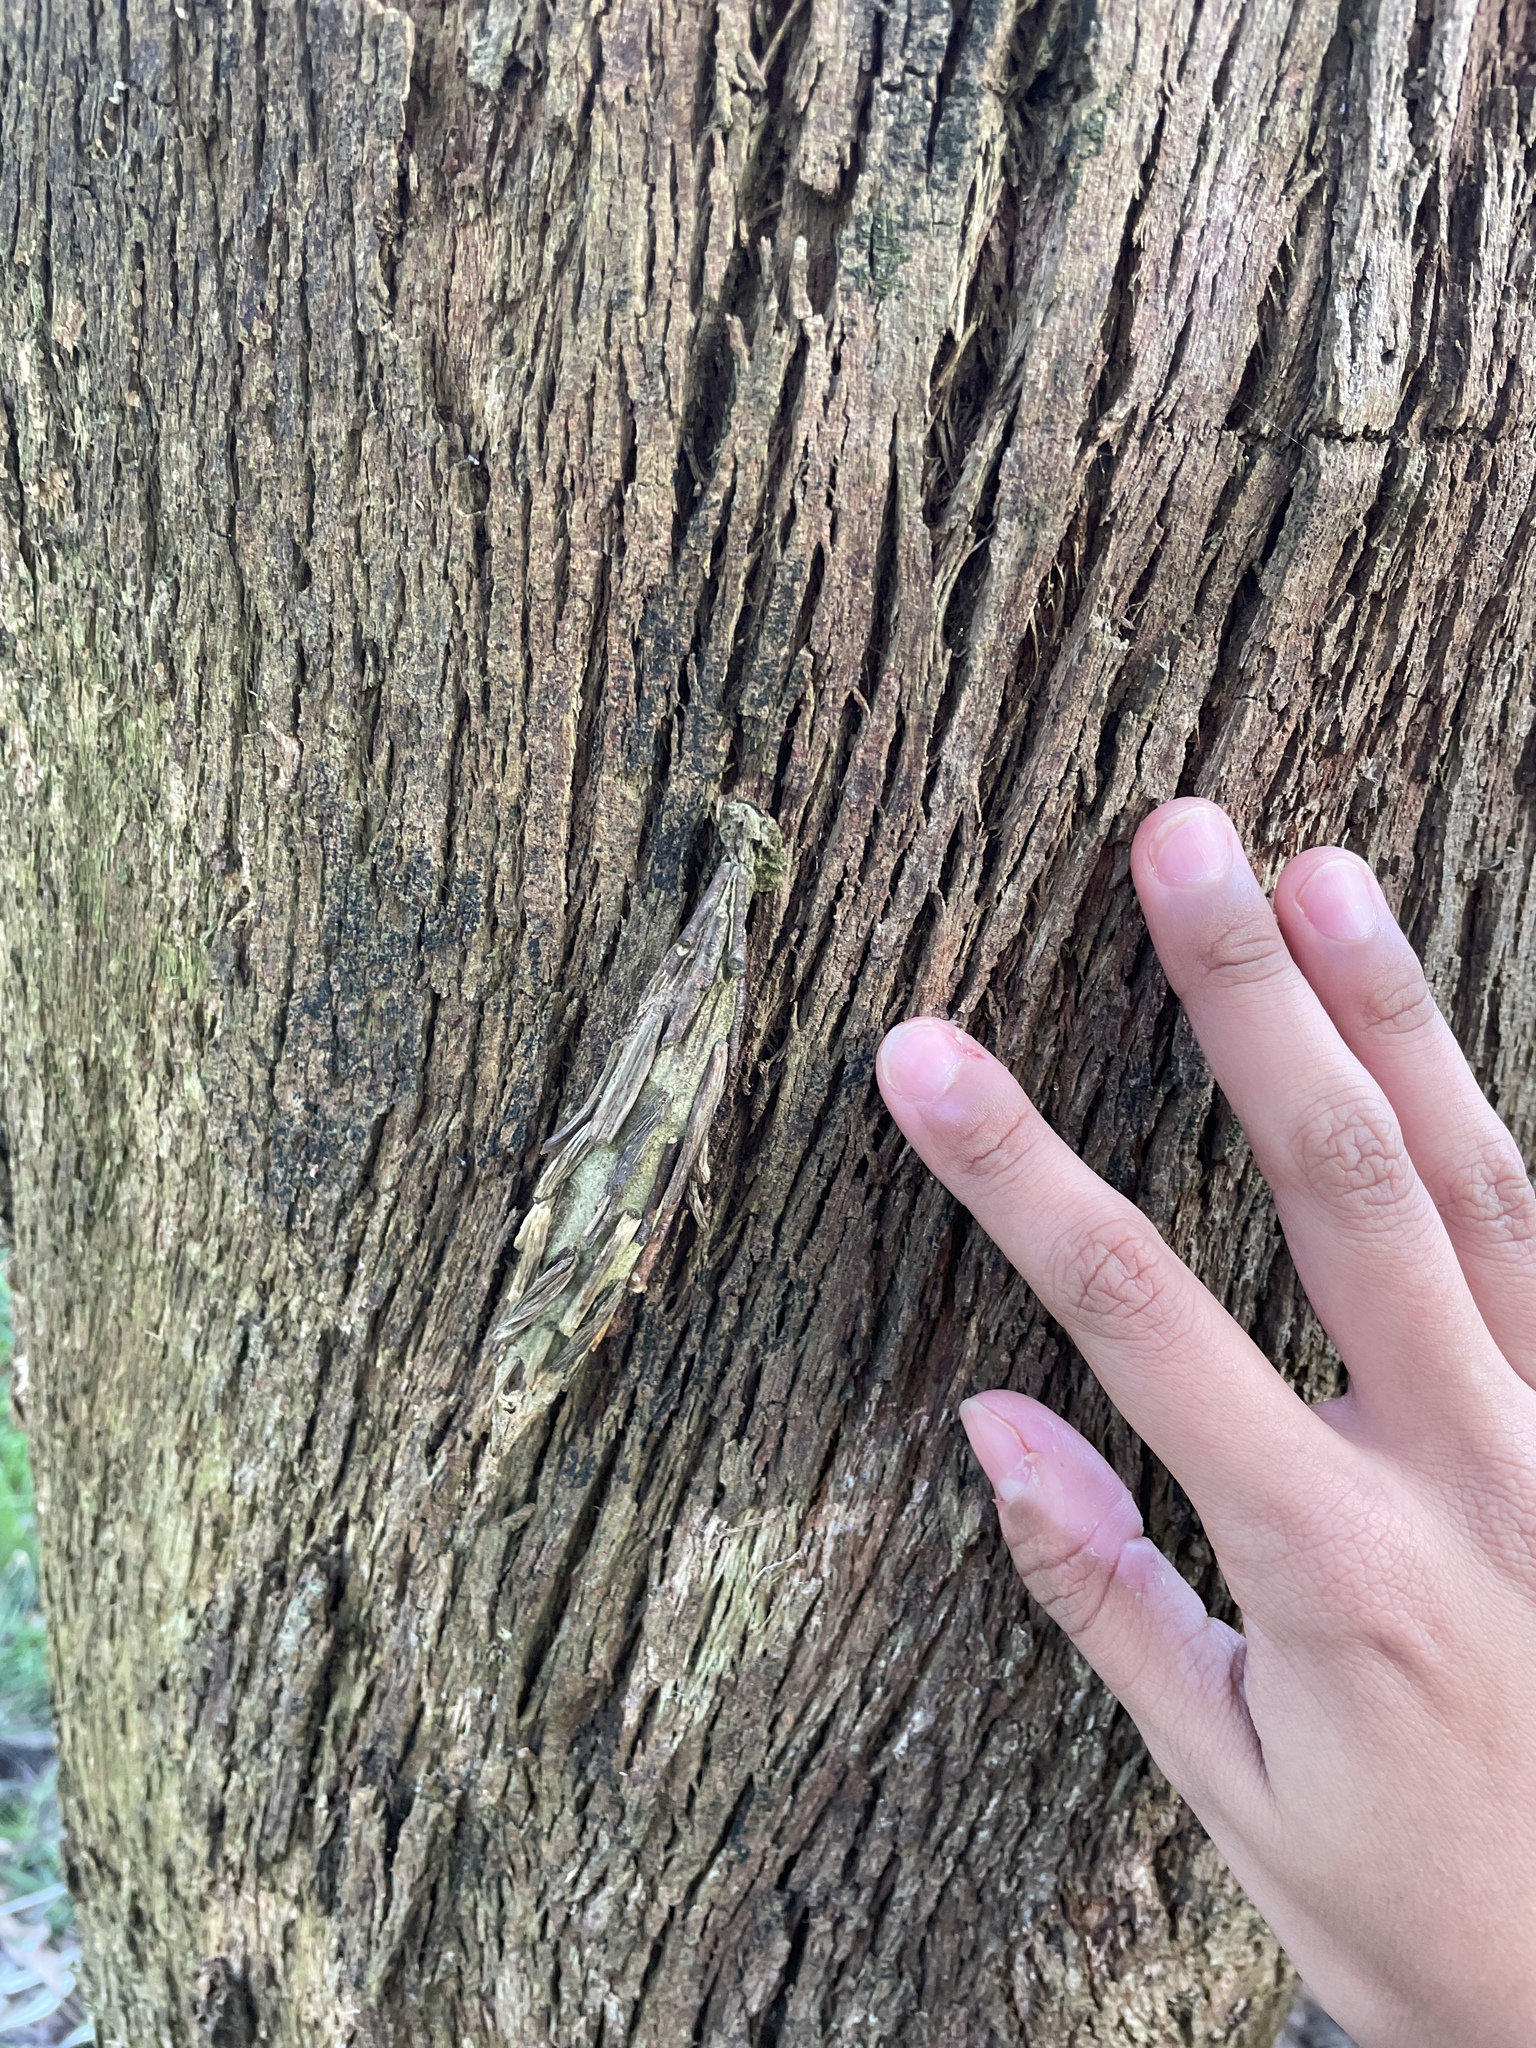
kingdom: Animalia
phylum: Arthropoda
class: Insecta
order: Lepidoptera
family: Psychidae
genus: Metura
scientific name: Metura elongatus
